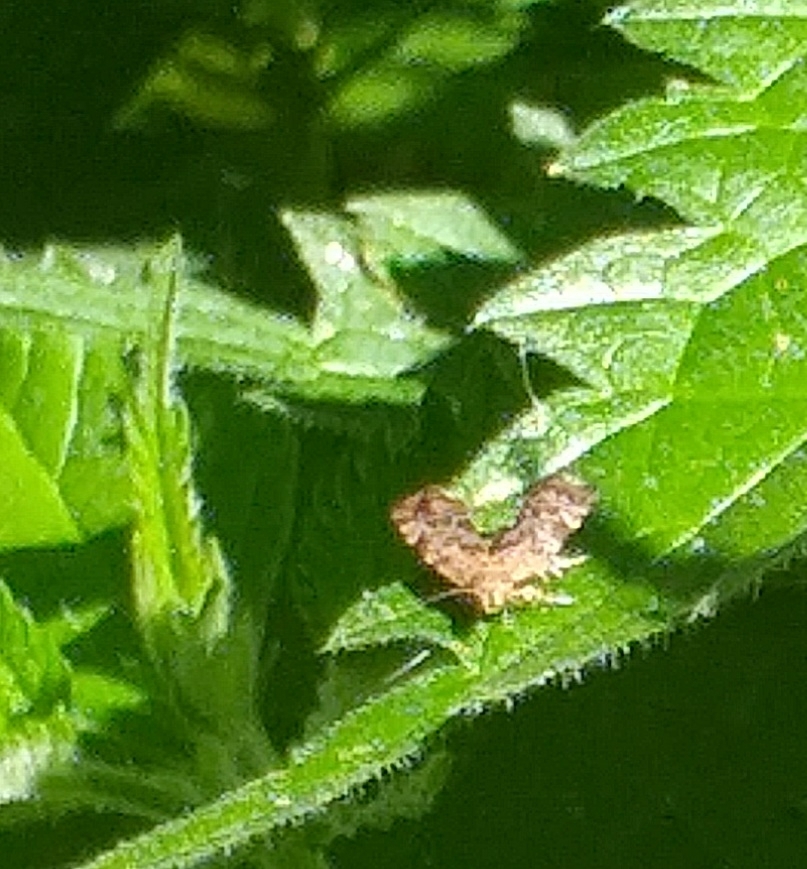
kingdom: Animalia
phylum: Arthropoda
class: Insecta
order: Lepidoptera
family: Choreutidae
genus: Anthophila
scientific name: Anthophila fabriciana
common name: Nettle-tap
